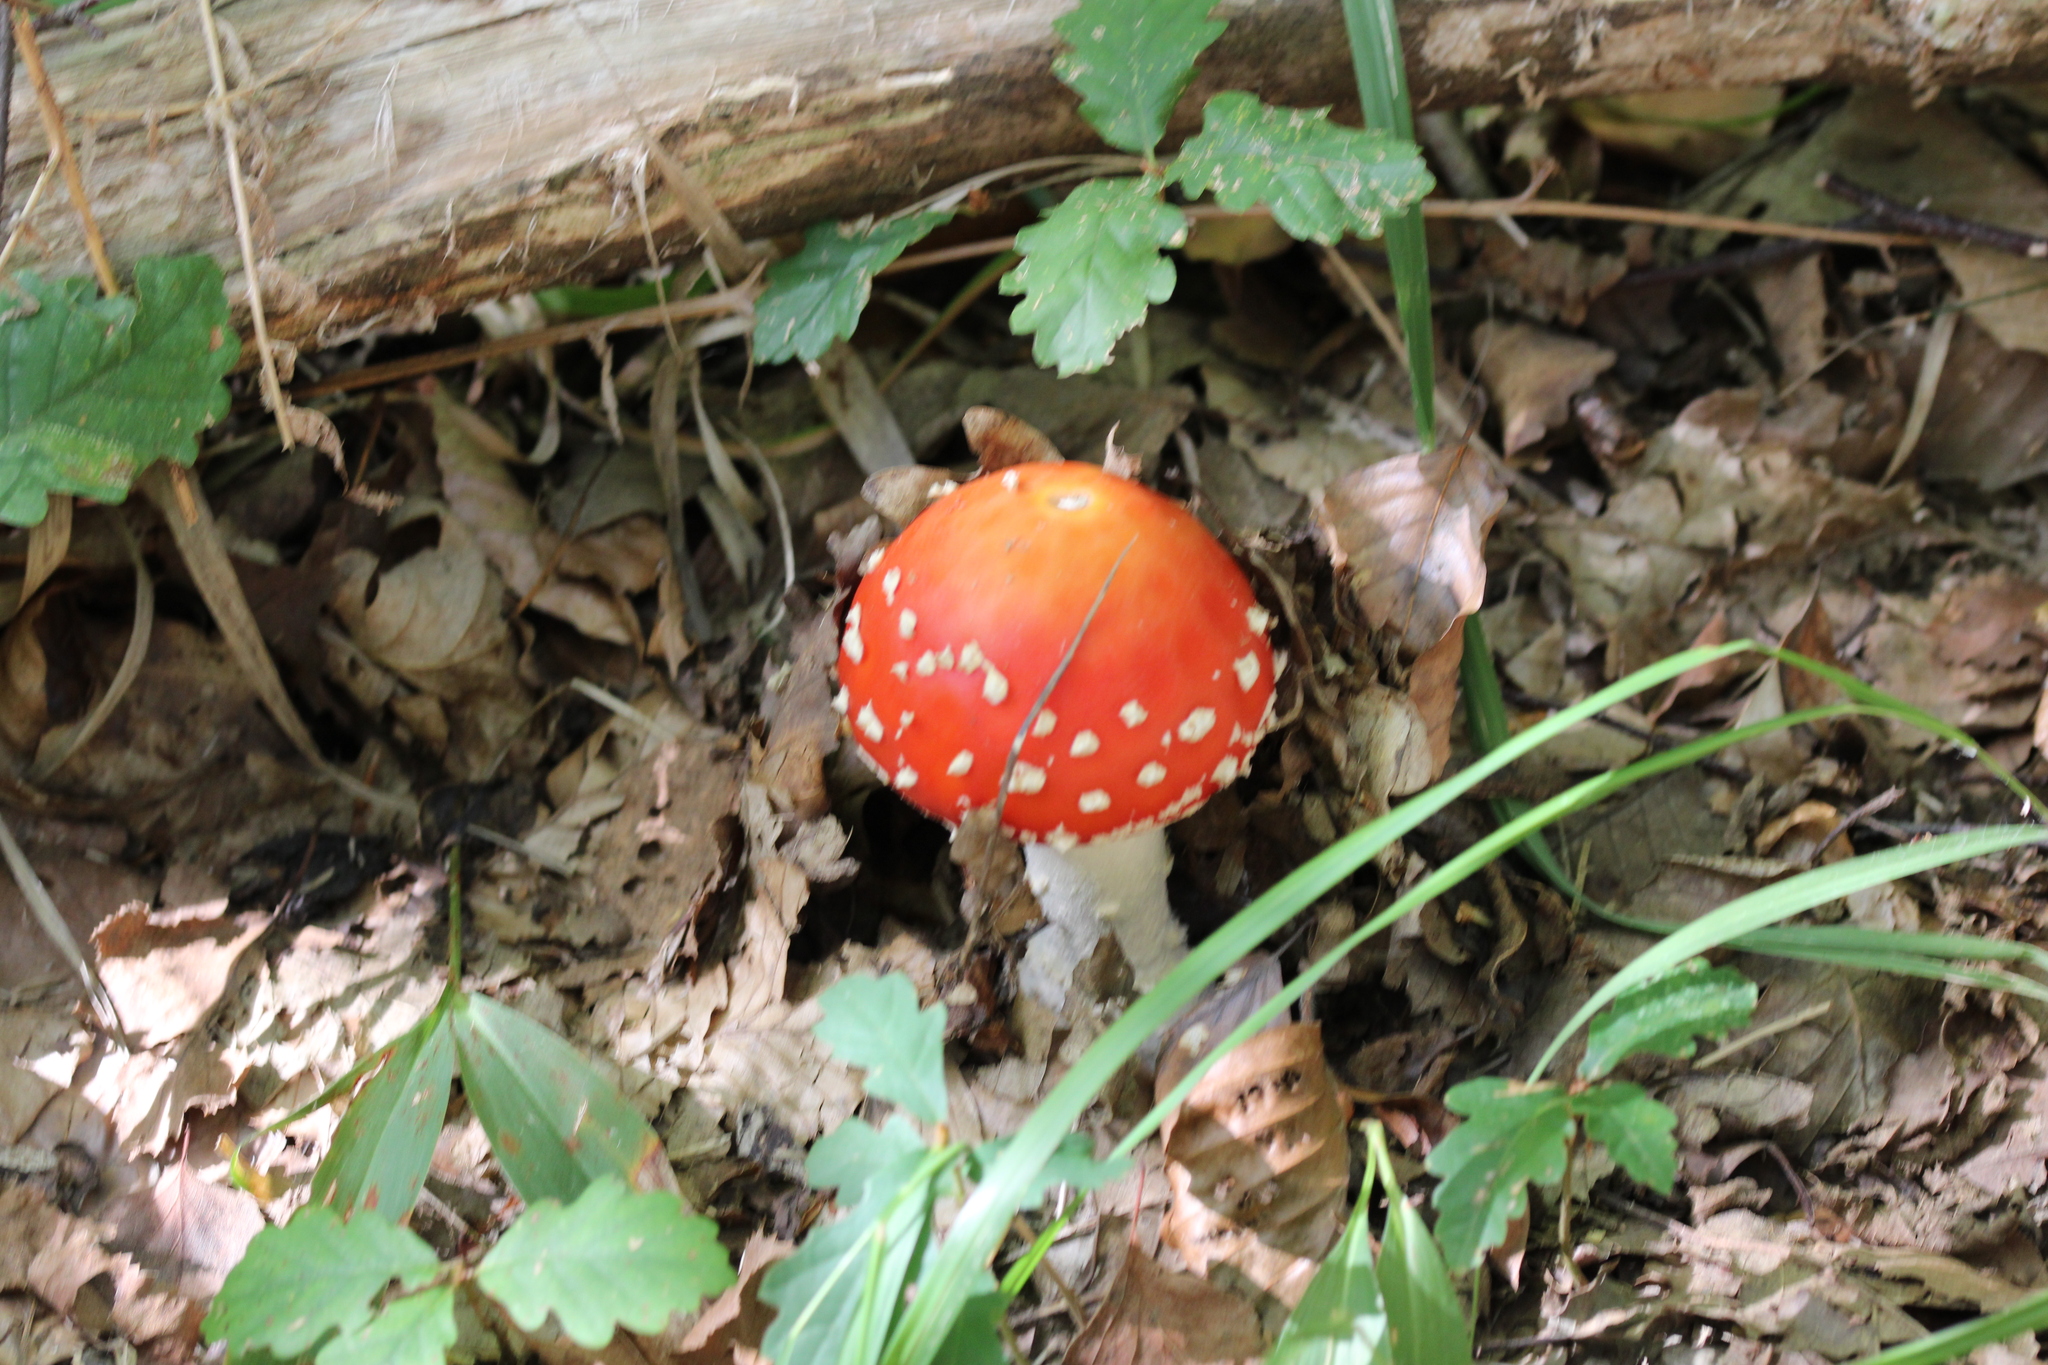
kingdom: Fungi
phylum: Basidiomycota
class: Agaricomycetes
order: Agaricales
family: Amanitaceae
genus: Amanita
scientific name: Amanita muscaria
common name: Fly agaric
